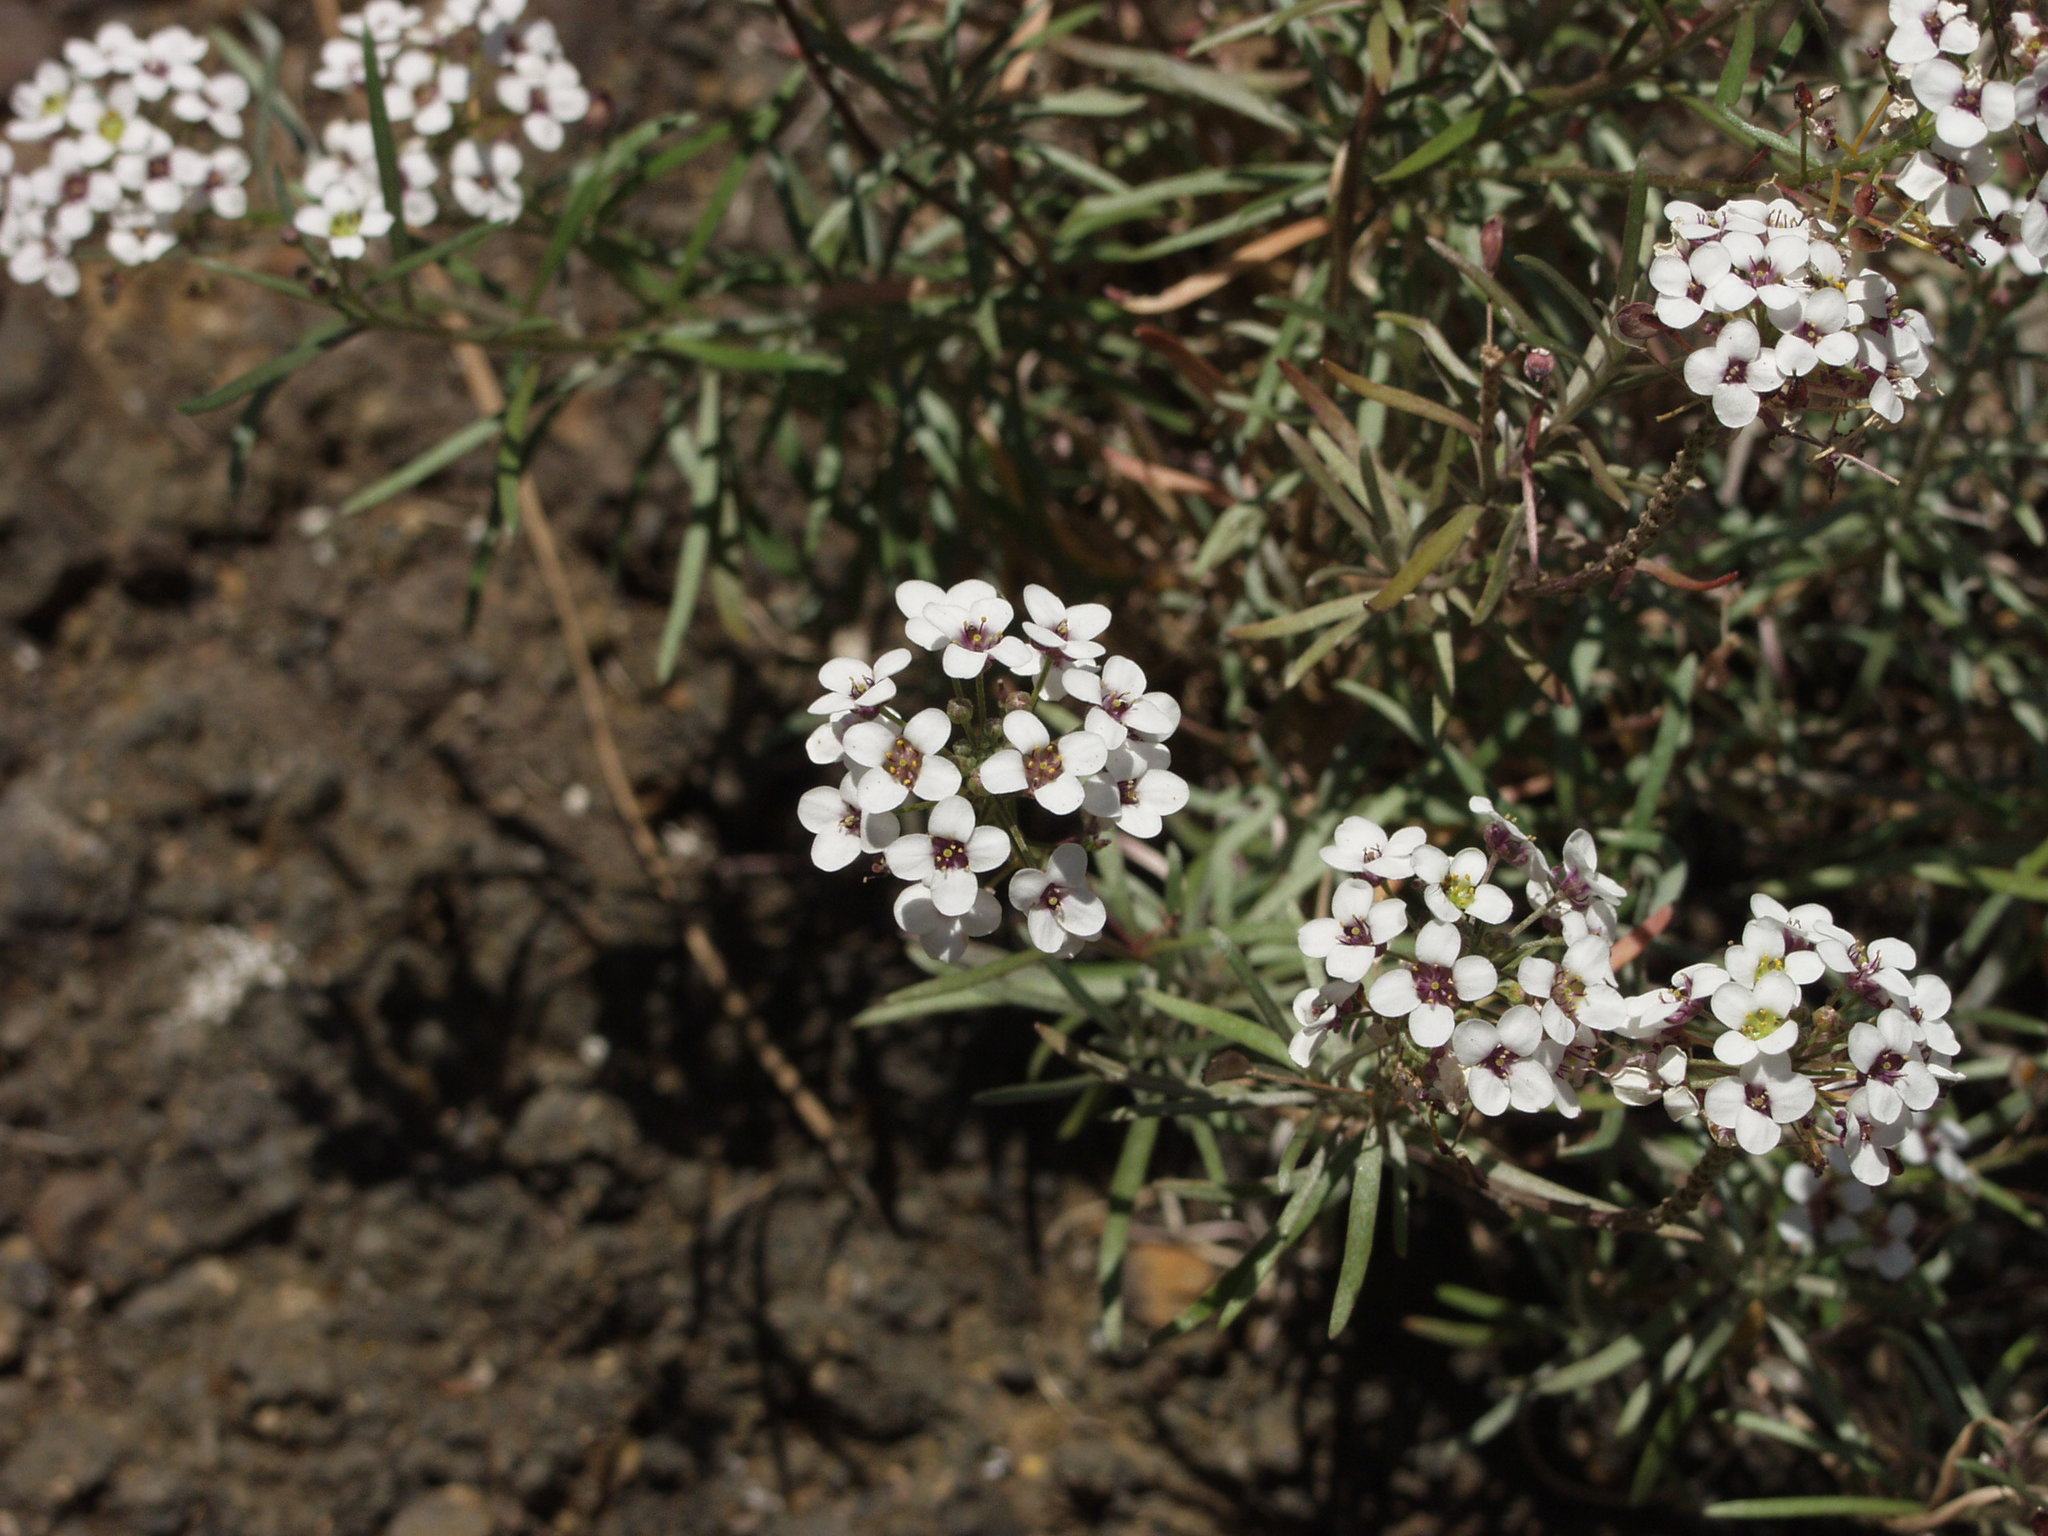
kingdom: Plantae
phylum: Tracheophyta
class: Magnoliopsida
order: Brassicales
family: Brassicaceae
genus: Lobularia
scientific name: Lobularia canariensis
